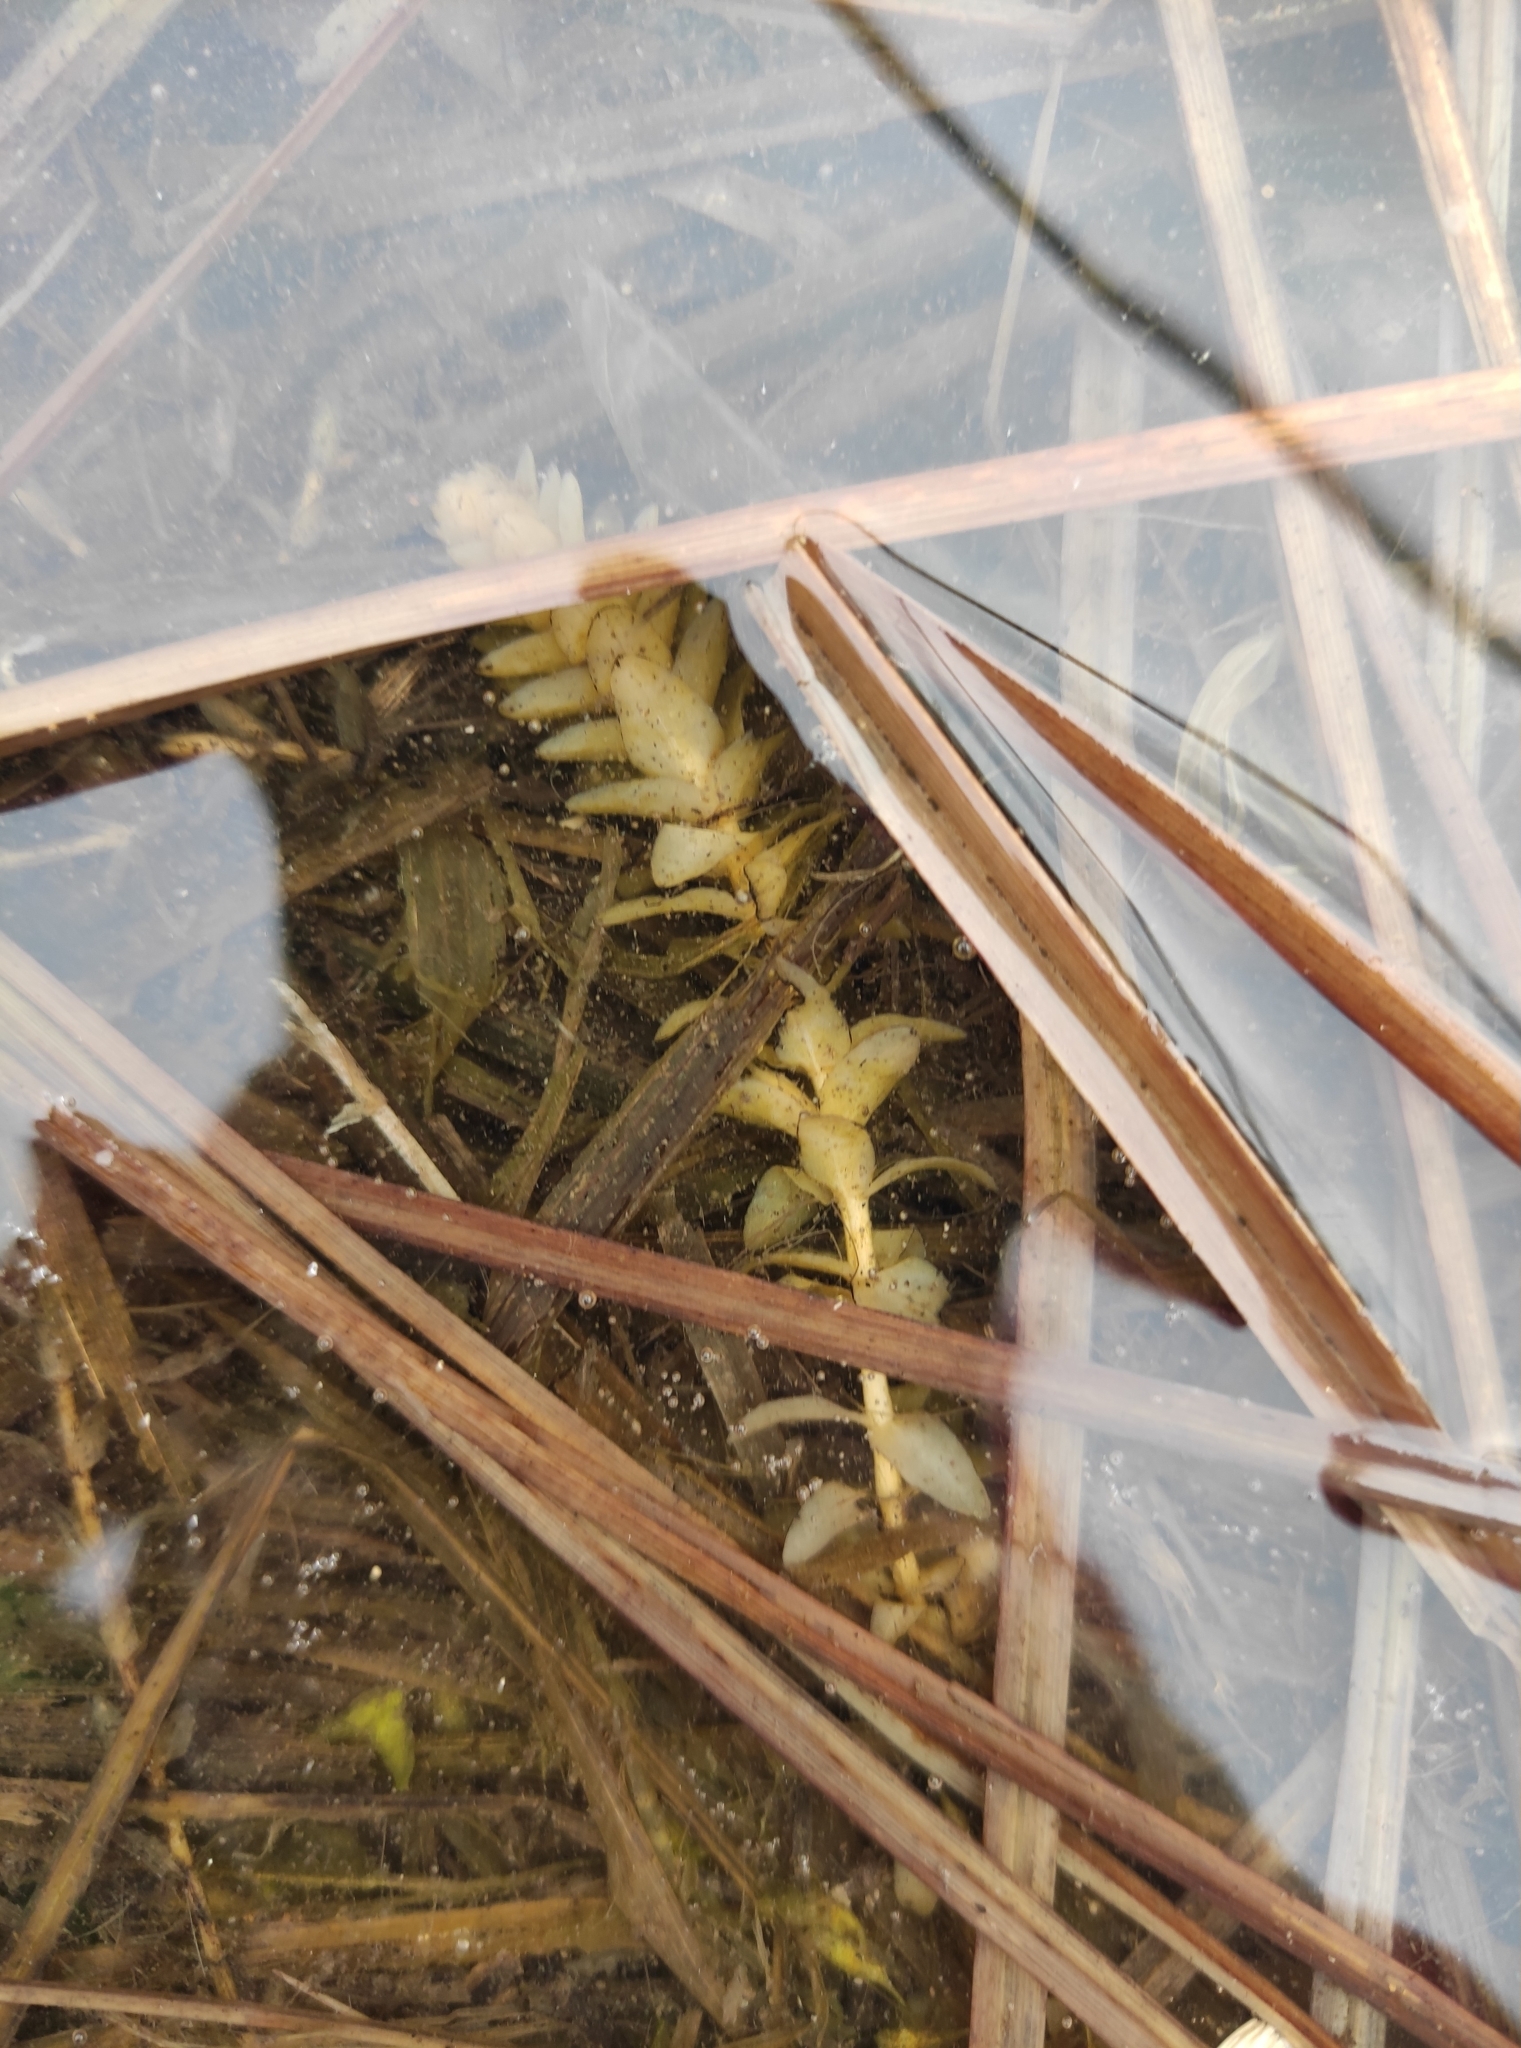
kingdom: Plantae
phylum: Tracheophyta
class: Liliopsida
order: Alismatales
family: Hydrocharitaceae
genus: Elodea
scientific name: Elodea canadensis
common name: Canadian waterweed
